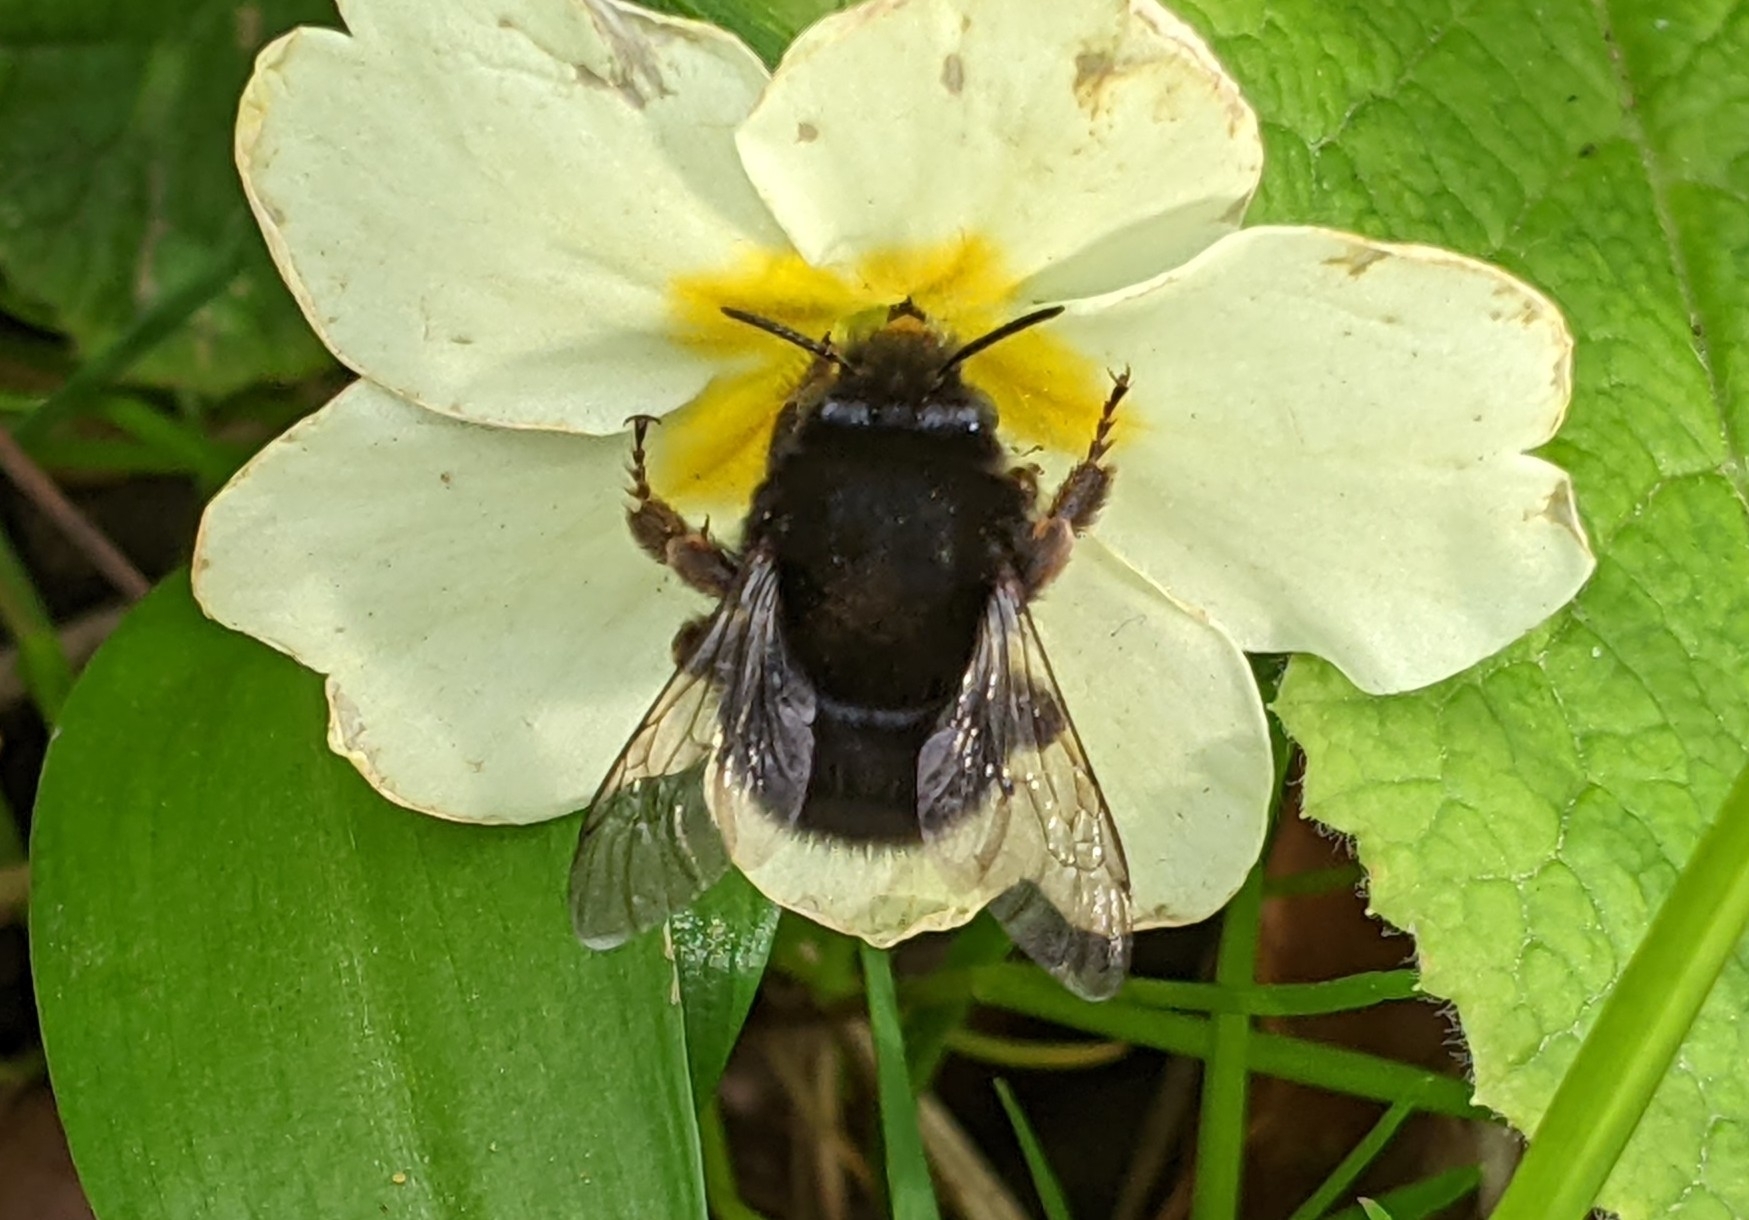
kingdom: Animalia
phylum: Arthropoda
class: Insecta
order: Hymenoptera
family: Apidae
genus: Anthophora
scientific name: Anthophora plumipes
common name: Hairy-footed flower bee
